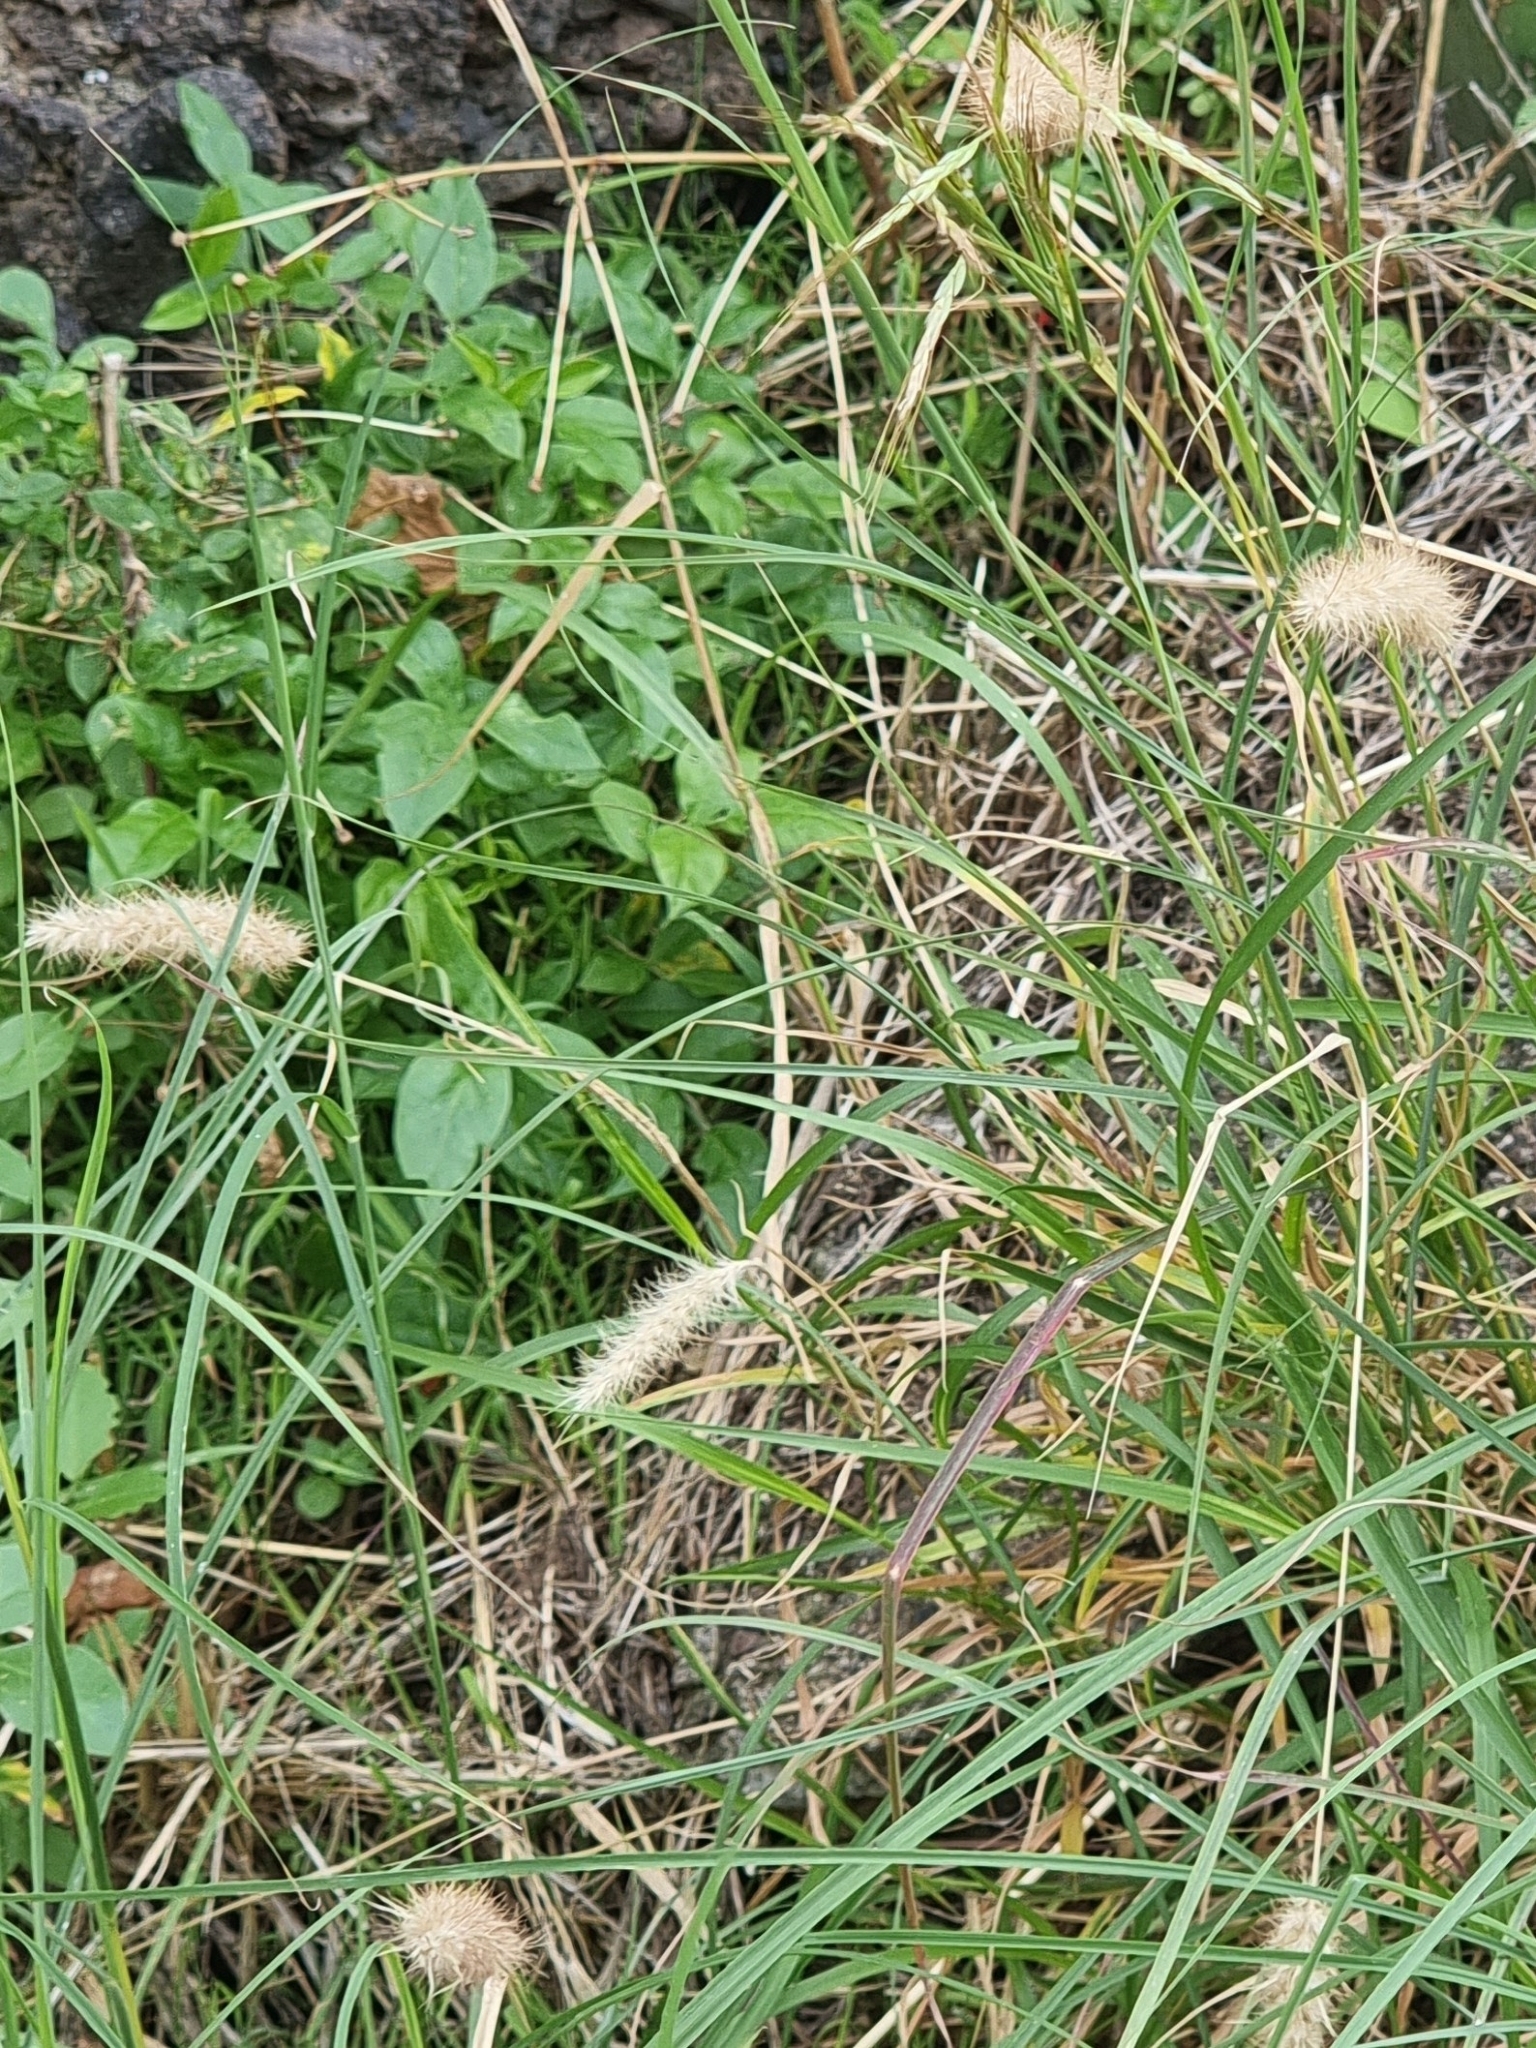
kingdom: Plantae
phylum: Tracheophyta
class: Liliopsida
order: Poales
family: Poaceae
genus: Cenchrus
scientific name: Cenchrus ciliaris
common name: Buffelgrass
